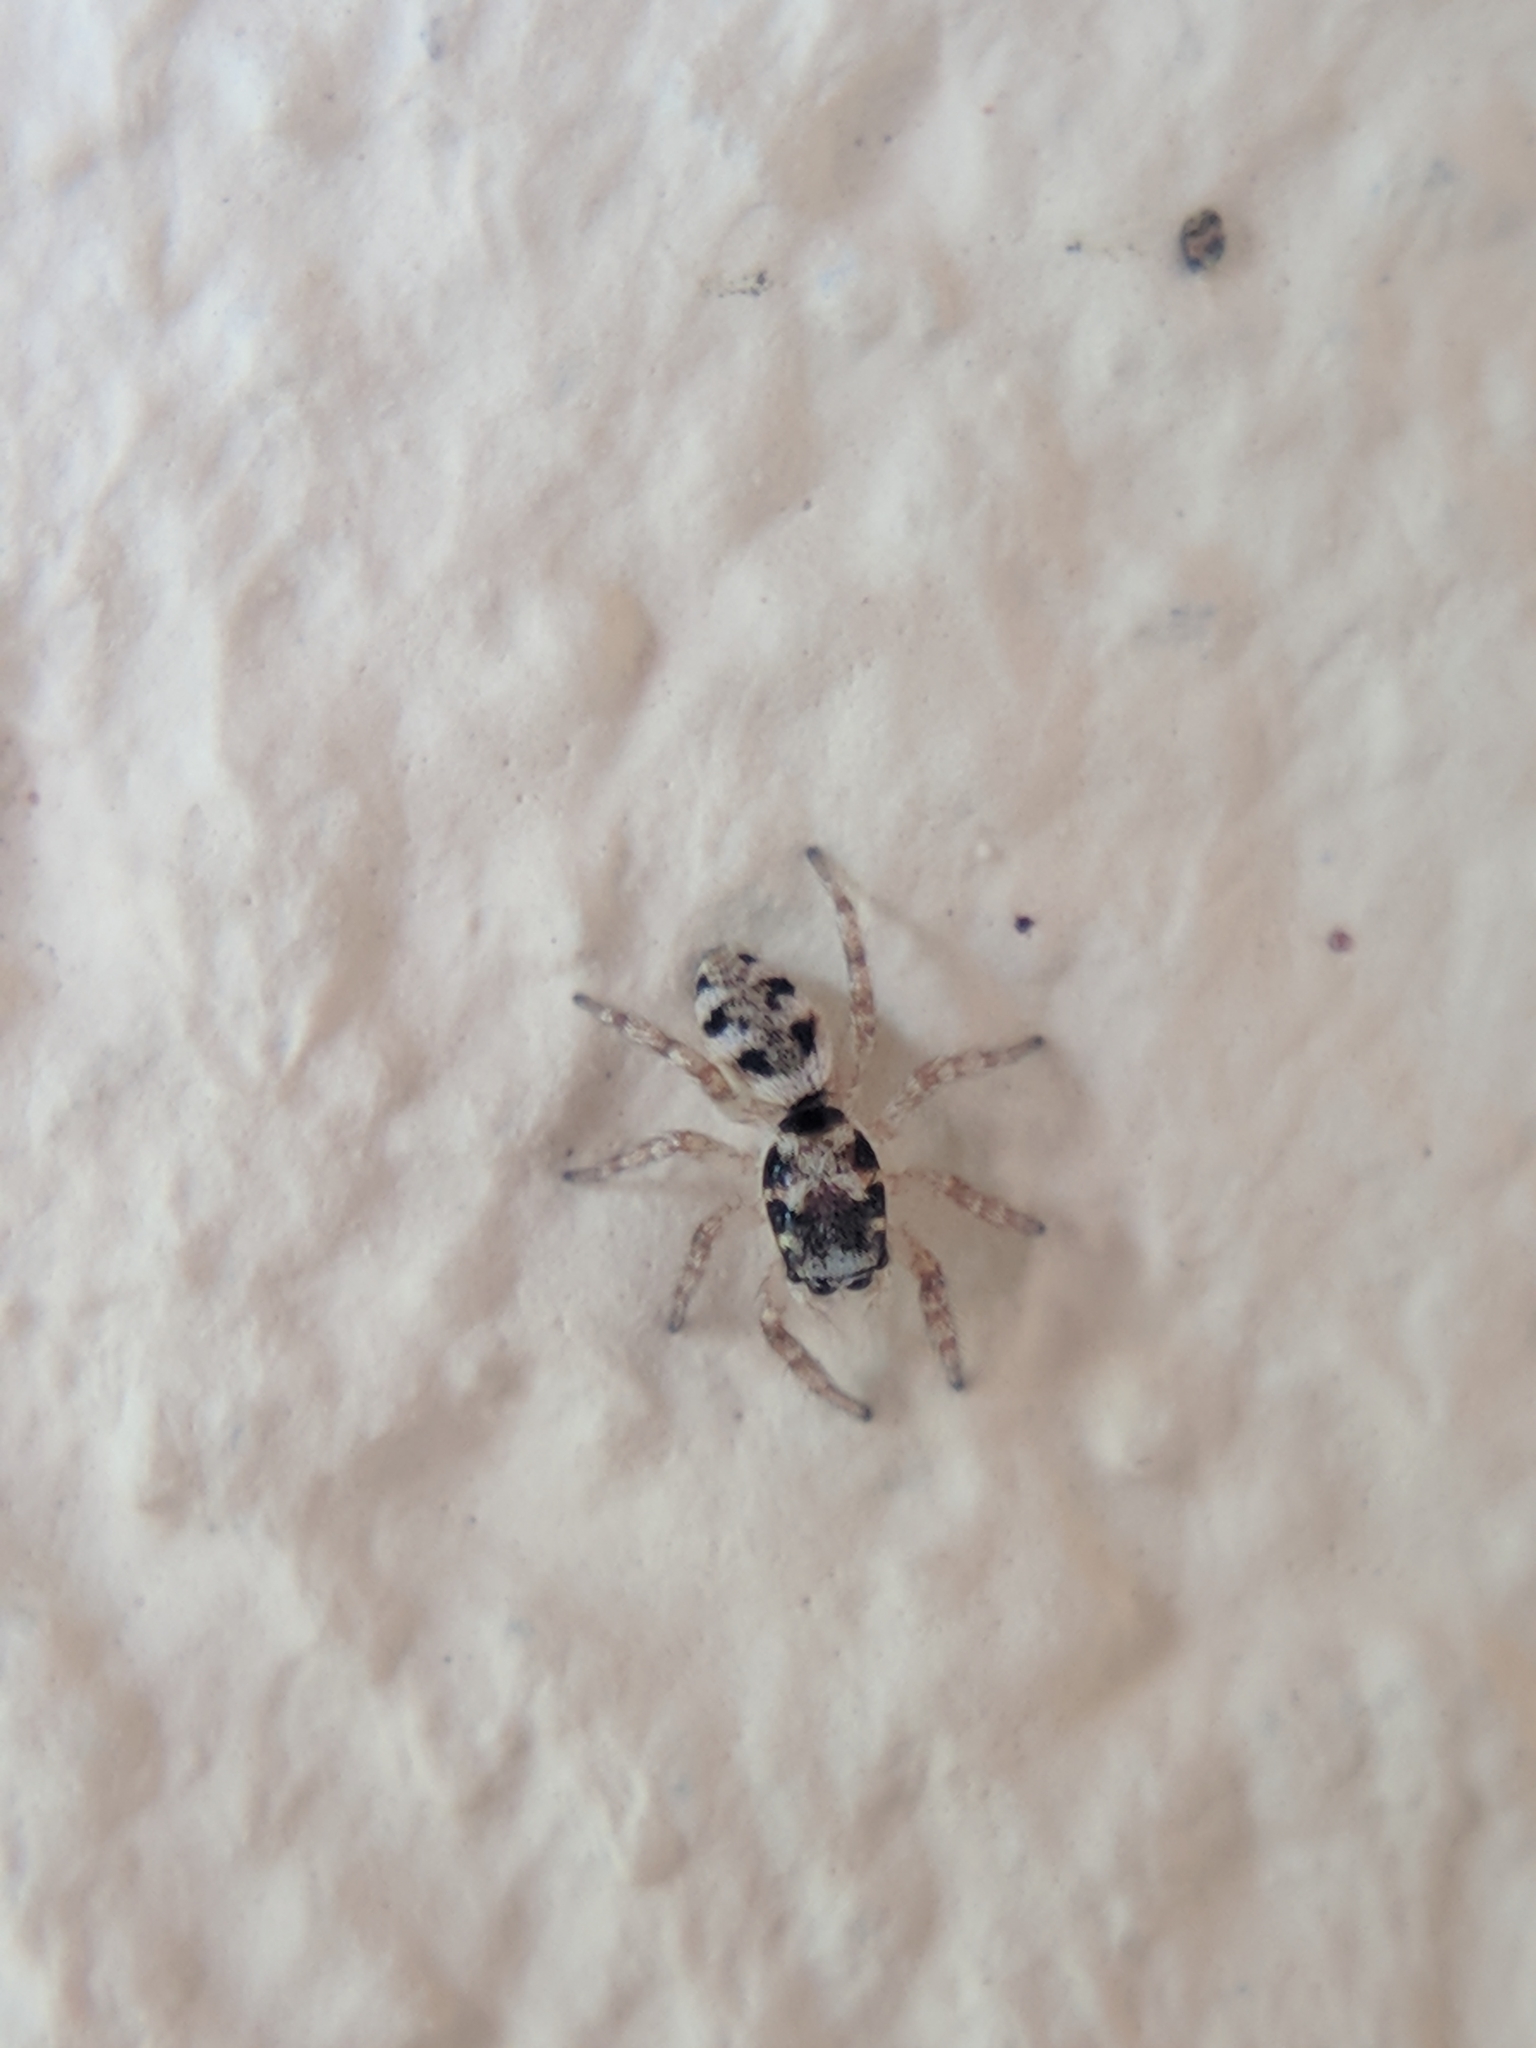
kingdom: Animalia
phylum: Arthropoda
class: Arachnida
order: Araneae
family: Salticidae
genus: Salticus
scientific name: Salticus scenicus
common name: Zebra jumper
